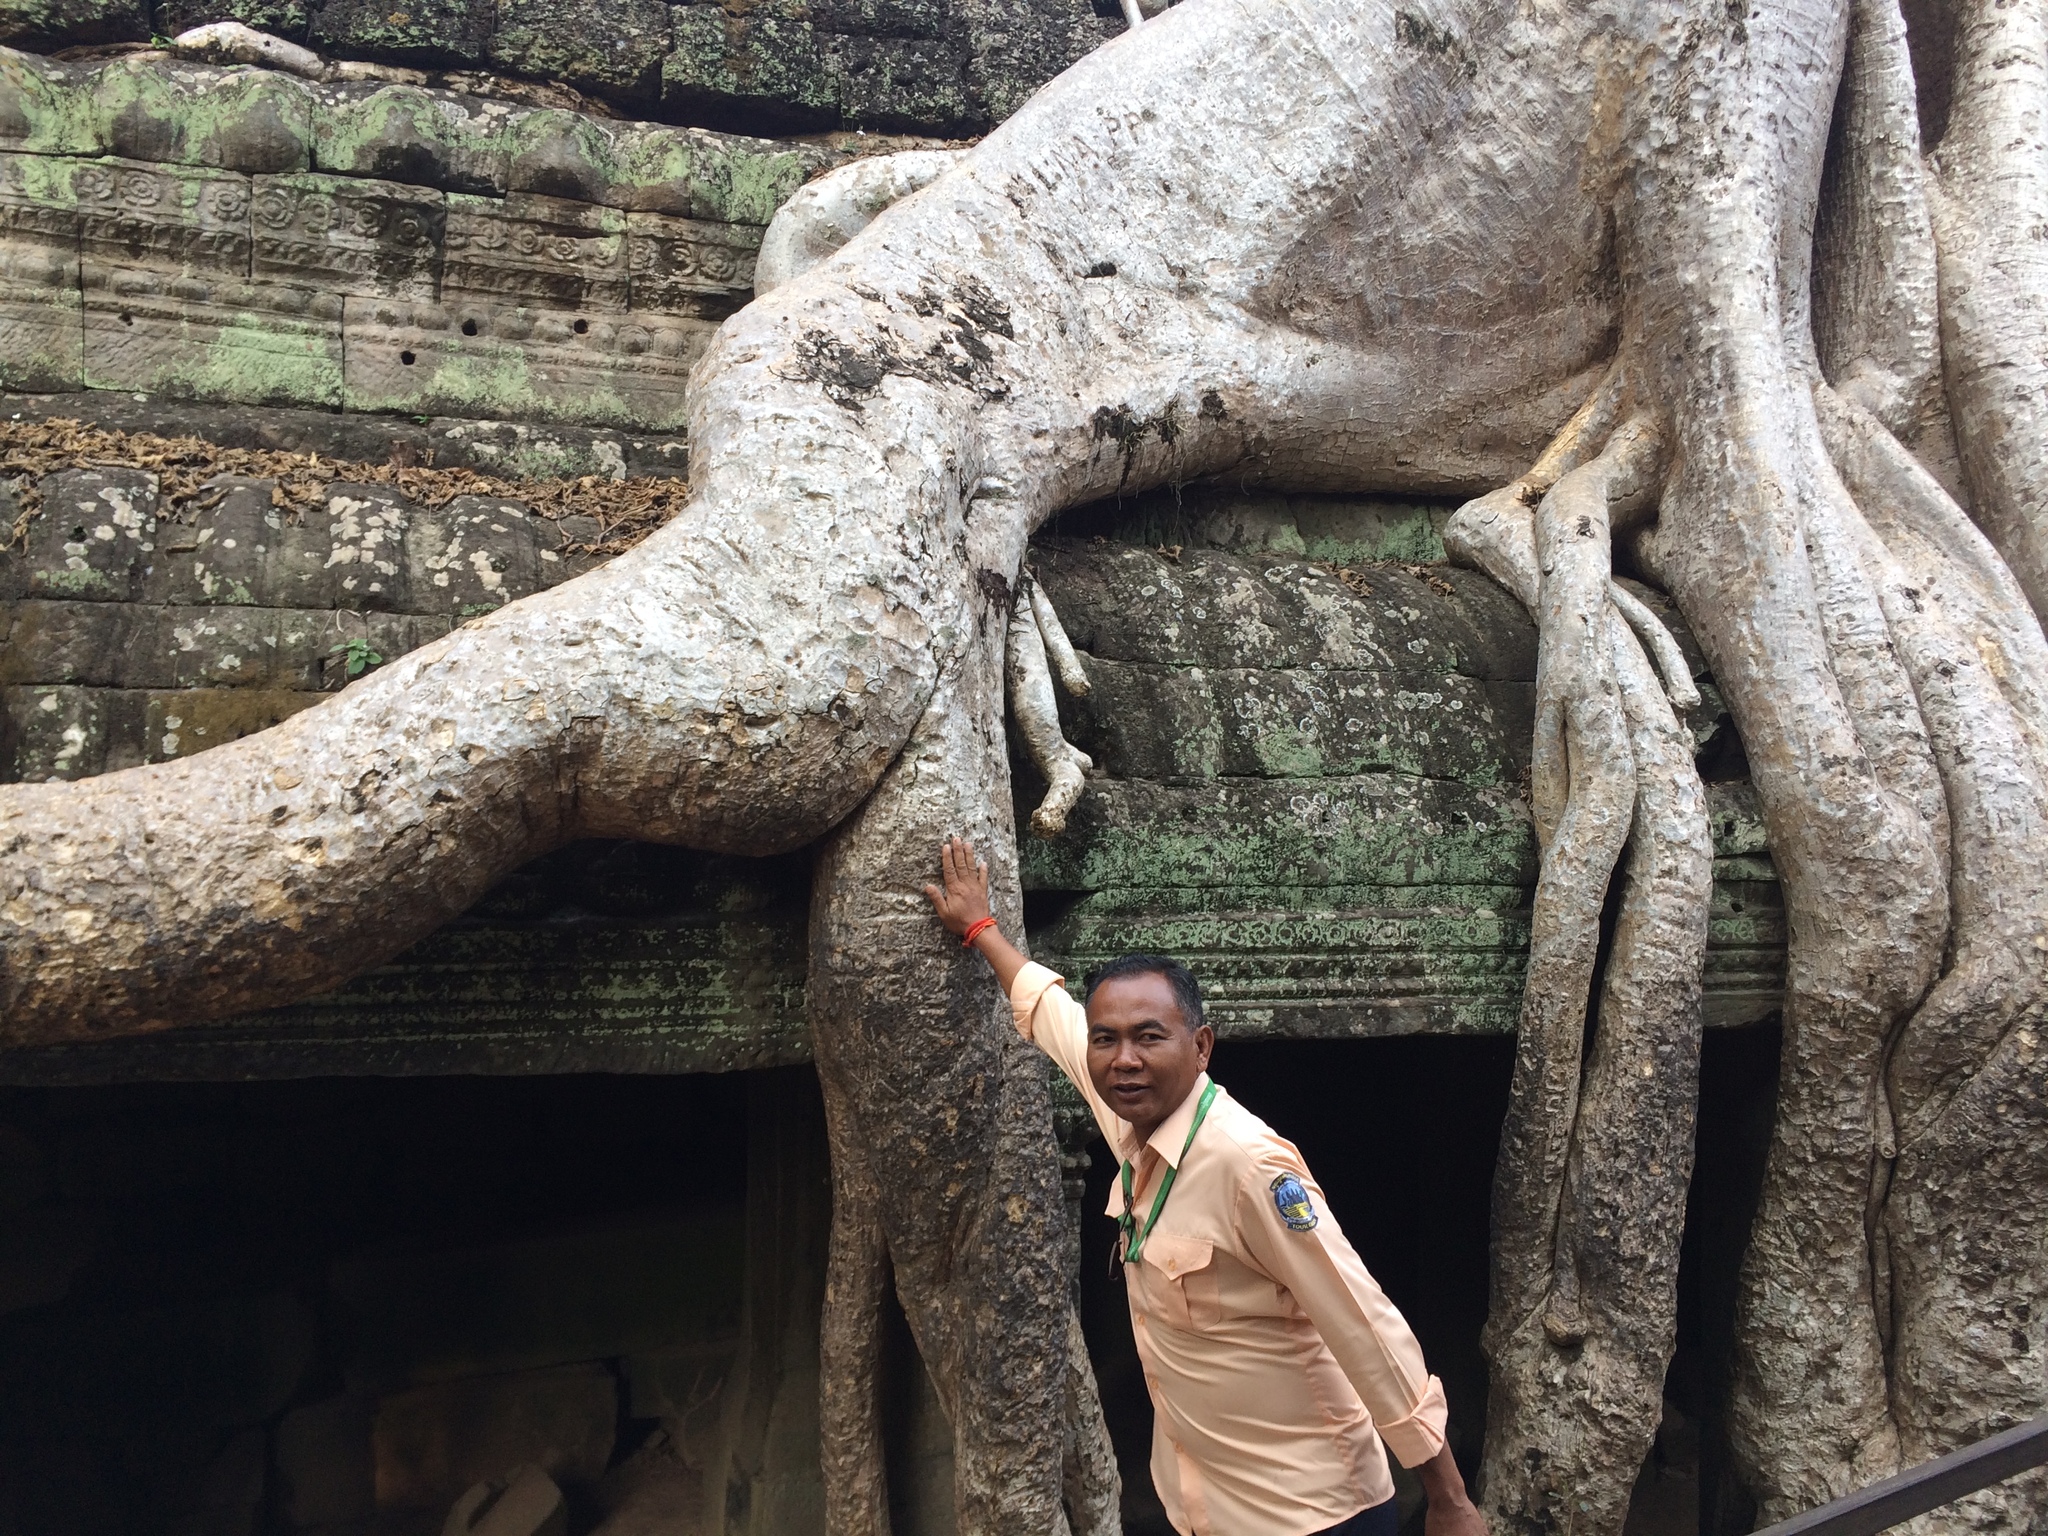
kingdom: Plantae
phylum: Tracheophyta
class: Magnoliopsida
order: Cucurbitales
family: Tetramelaceae
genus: Tetrameles
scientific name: Tetrameles nudiflora
